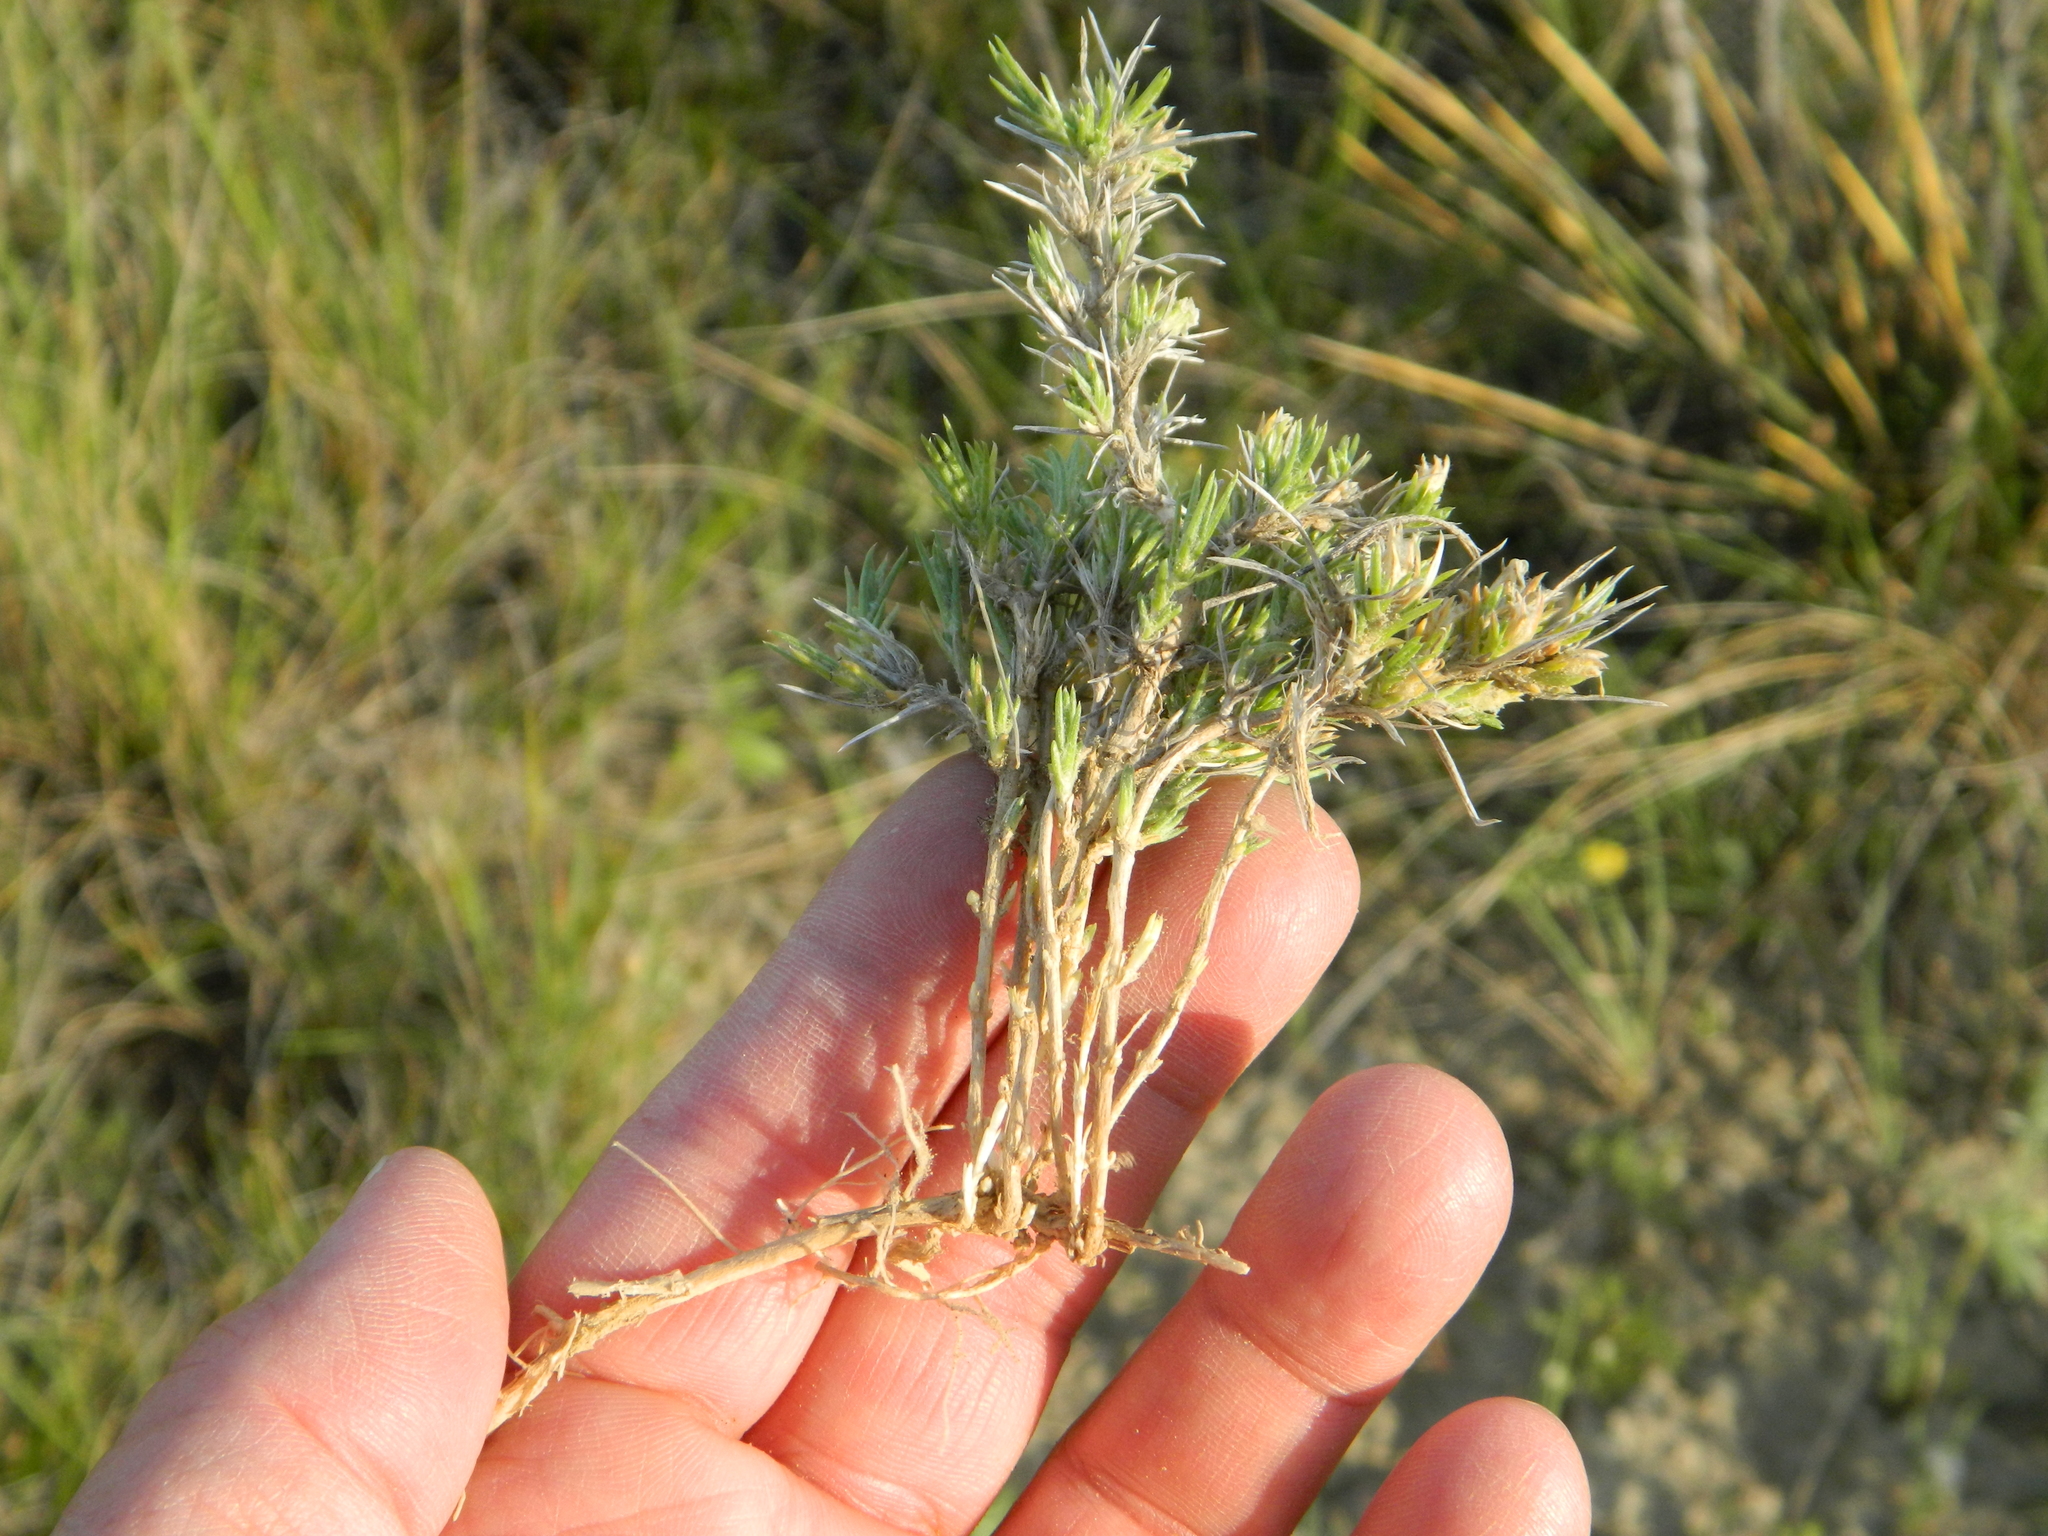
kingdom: Plantae
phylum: Tracheophyta
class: Magnoliopsida
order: Ericales
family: Polemoniaceae
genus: Phlox
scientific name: Phlox andicola
